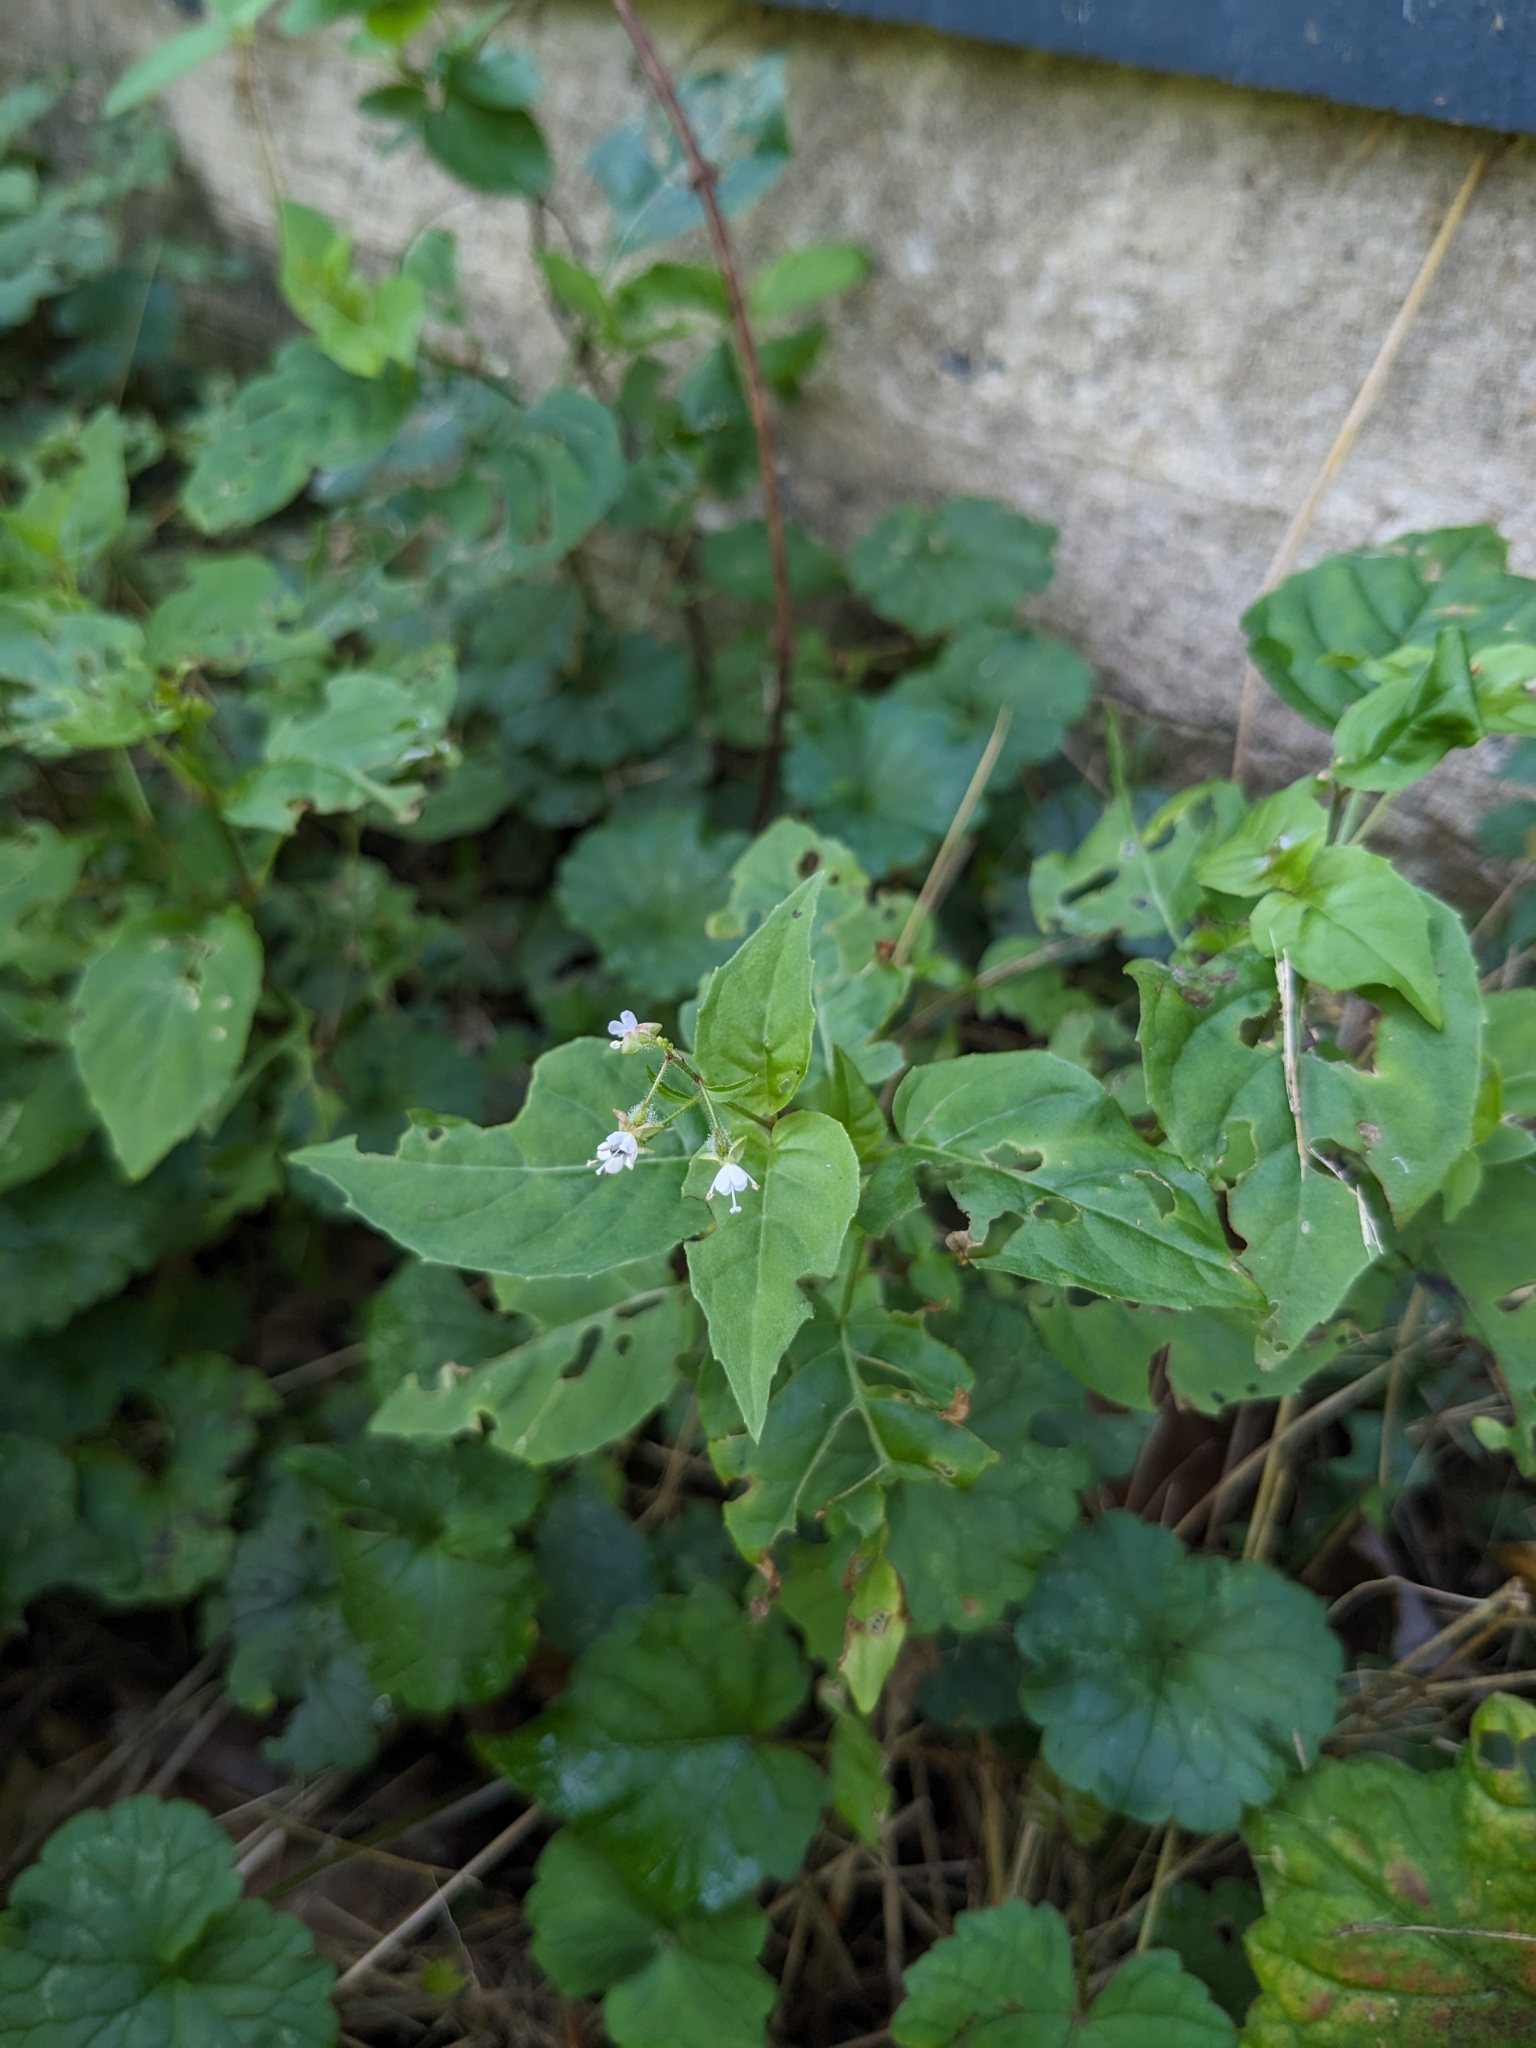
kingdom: Plantae
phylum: Tracheophyta
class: Magnoliopsida
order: Myrtales
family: Onagraceae
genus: Circaea
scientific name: Circaea canadensis
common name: Broad-leaved enchanter's nightshade
